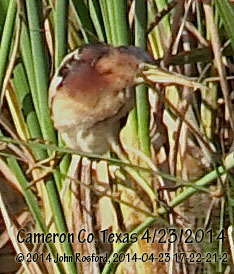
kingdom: Animalia
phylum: Chordata
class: Aves
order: Pelecaniformes
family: Ardeidae
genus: Ixobrychus
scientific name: Ixobrychus exilis
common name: Least bittern
